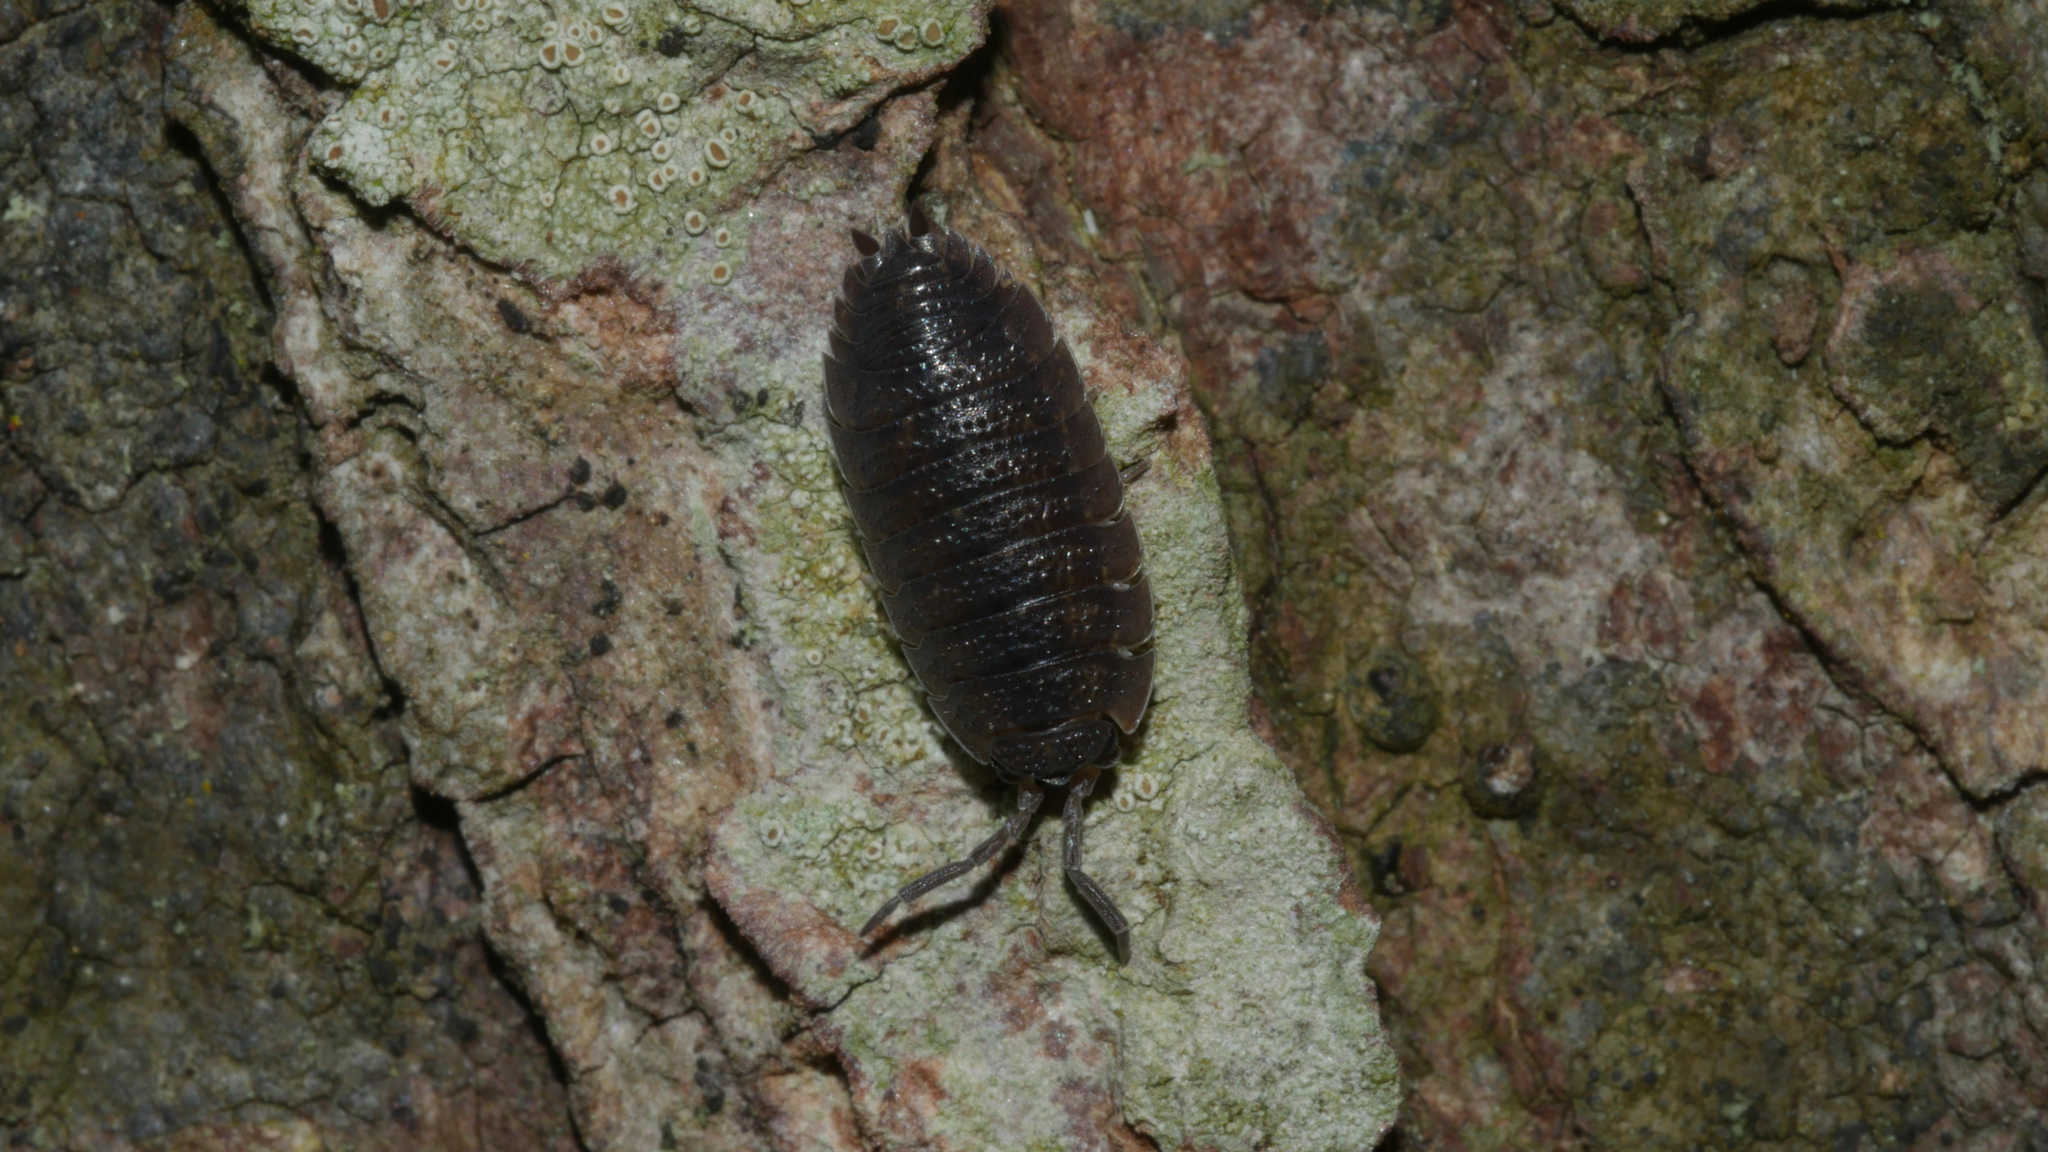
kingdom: Animalia
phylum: Arthropoda
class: Malacostraca
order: Isopoda
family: Porcellionidae
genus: Porcellio
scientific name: Porcellio scaber
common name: Common rough woodlouse
